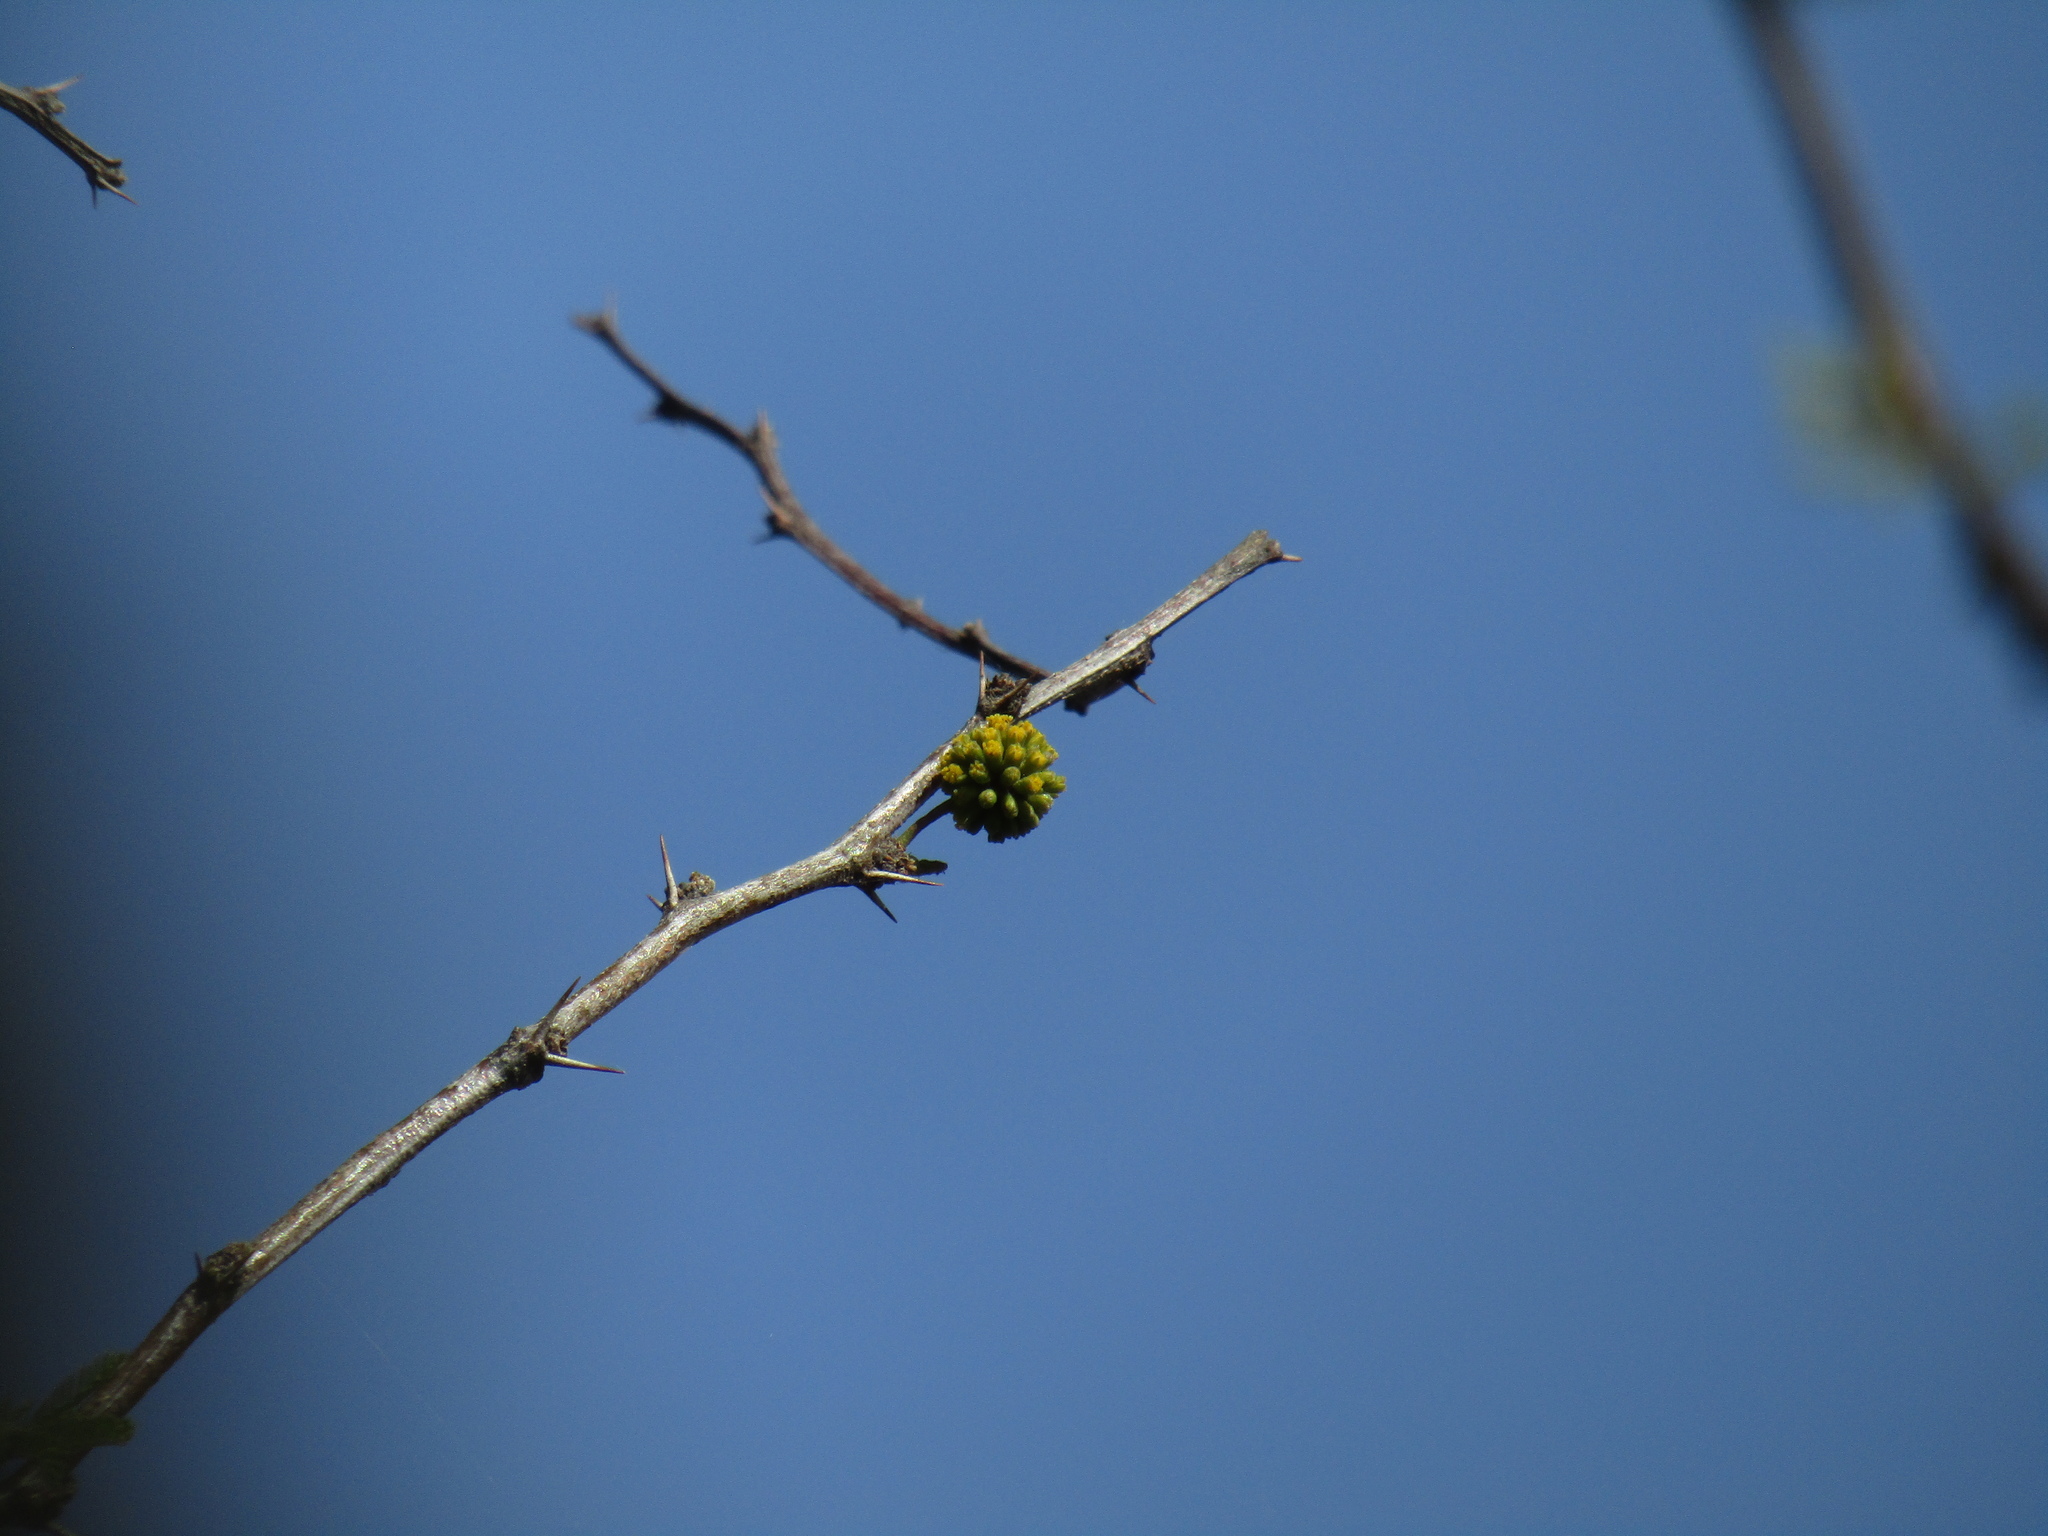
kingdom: Plantae
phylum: Tracheophyta
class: Magnoliopsida
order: Fabales
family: Fabaceae
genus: Vachellia
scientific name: Vachellia caven
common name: Roman cassie
